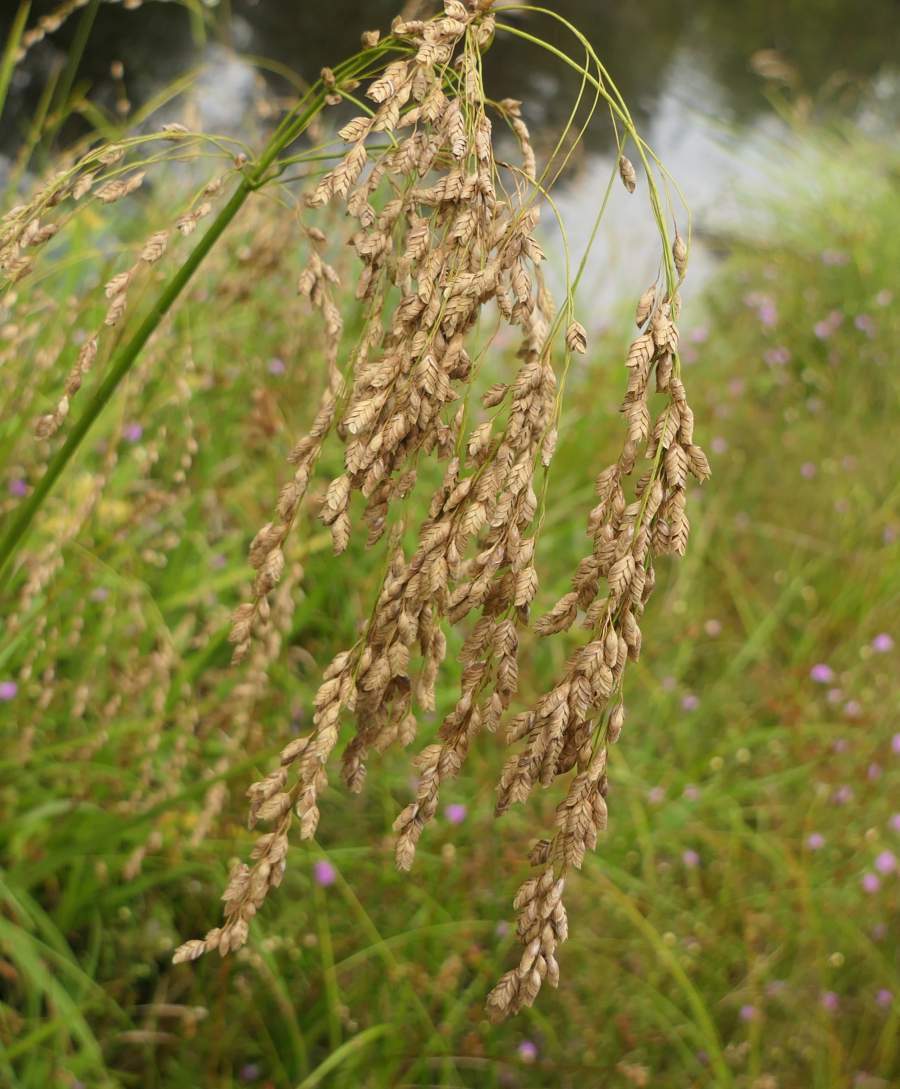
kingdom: Plantae
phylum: Tracheophyta
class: Liliopsida
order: Poales
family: Poaceae
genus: Glyceria
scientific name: Glyceria canadensis
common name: Canada mannagrass
